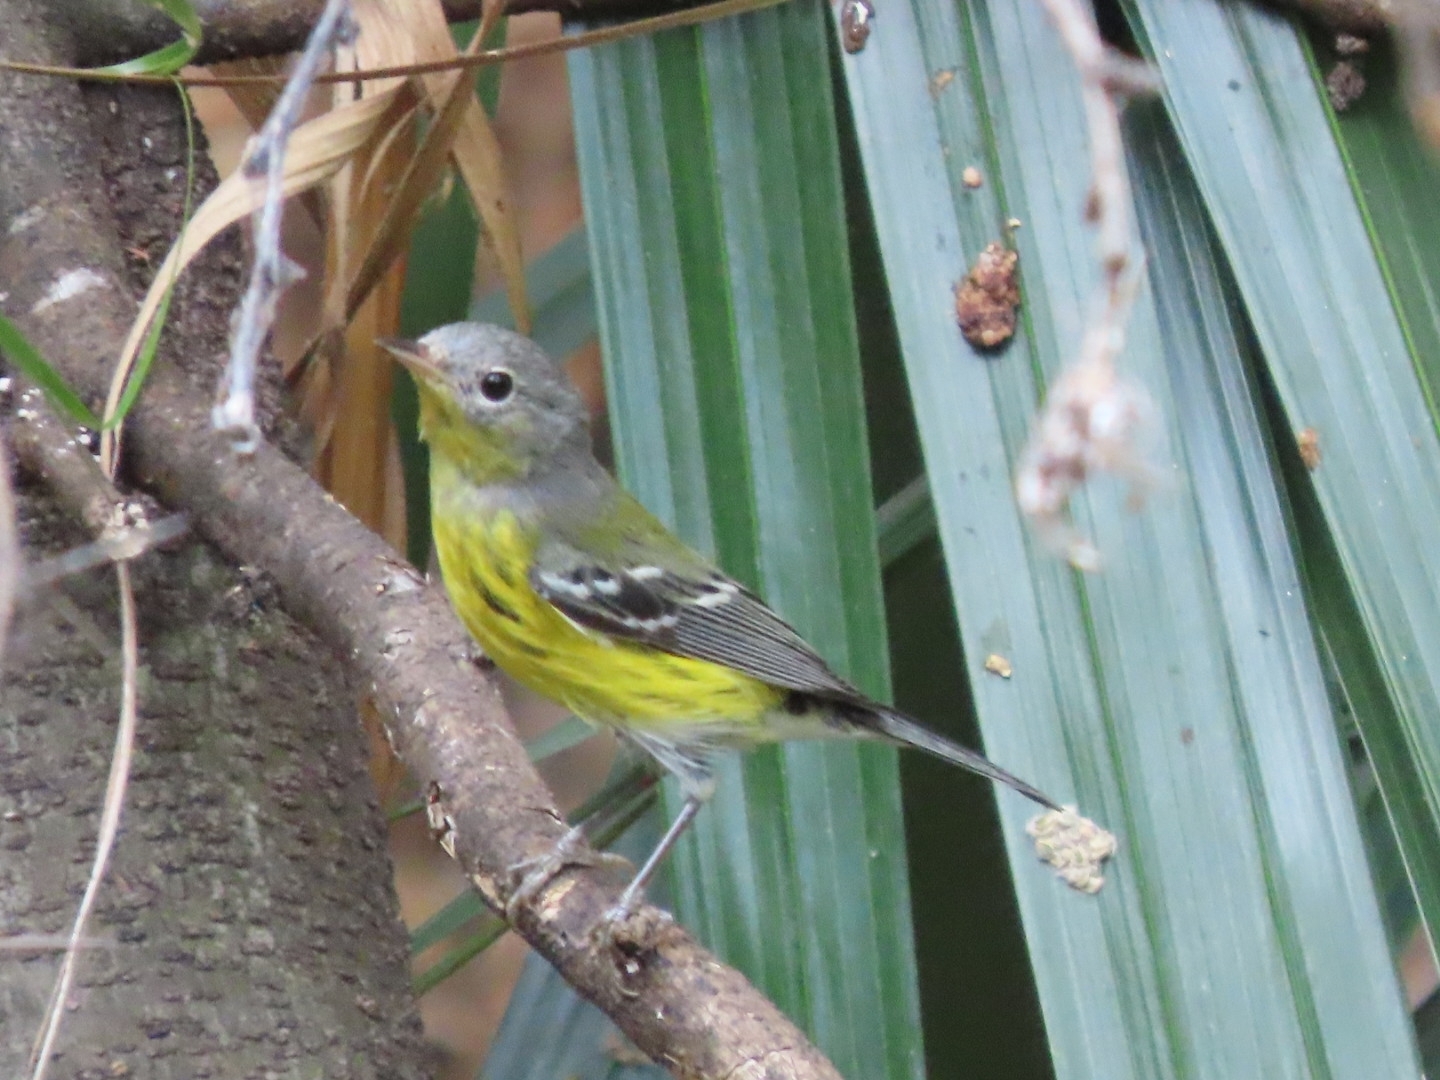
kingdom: Animalia
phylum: Chordata
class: Aves
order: Passeriformes
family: Parulidae
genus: Setophaga
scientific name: Setophaga magnolia
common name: Magnolia warbler
